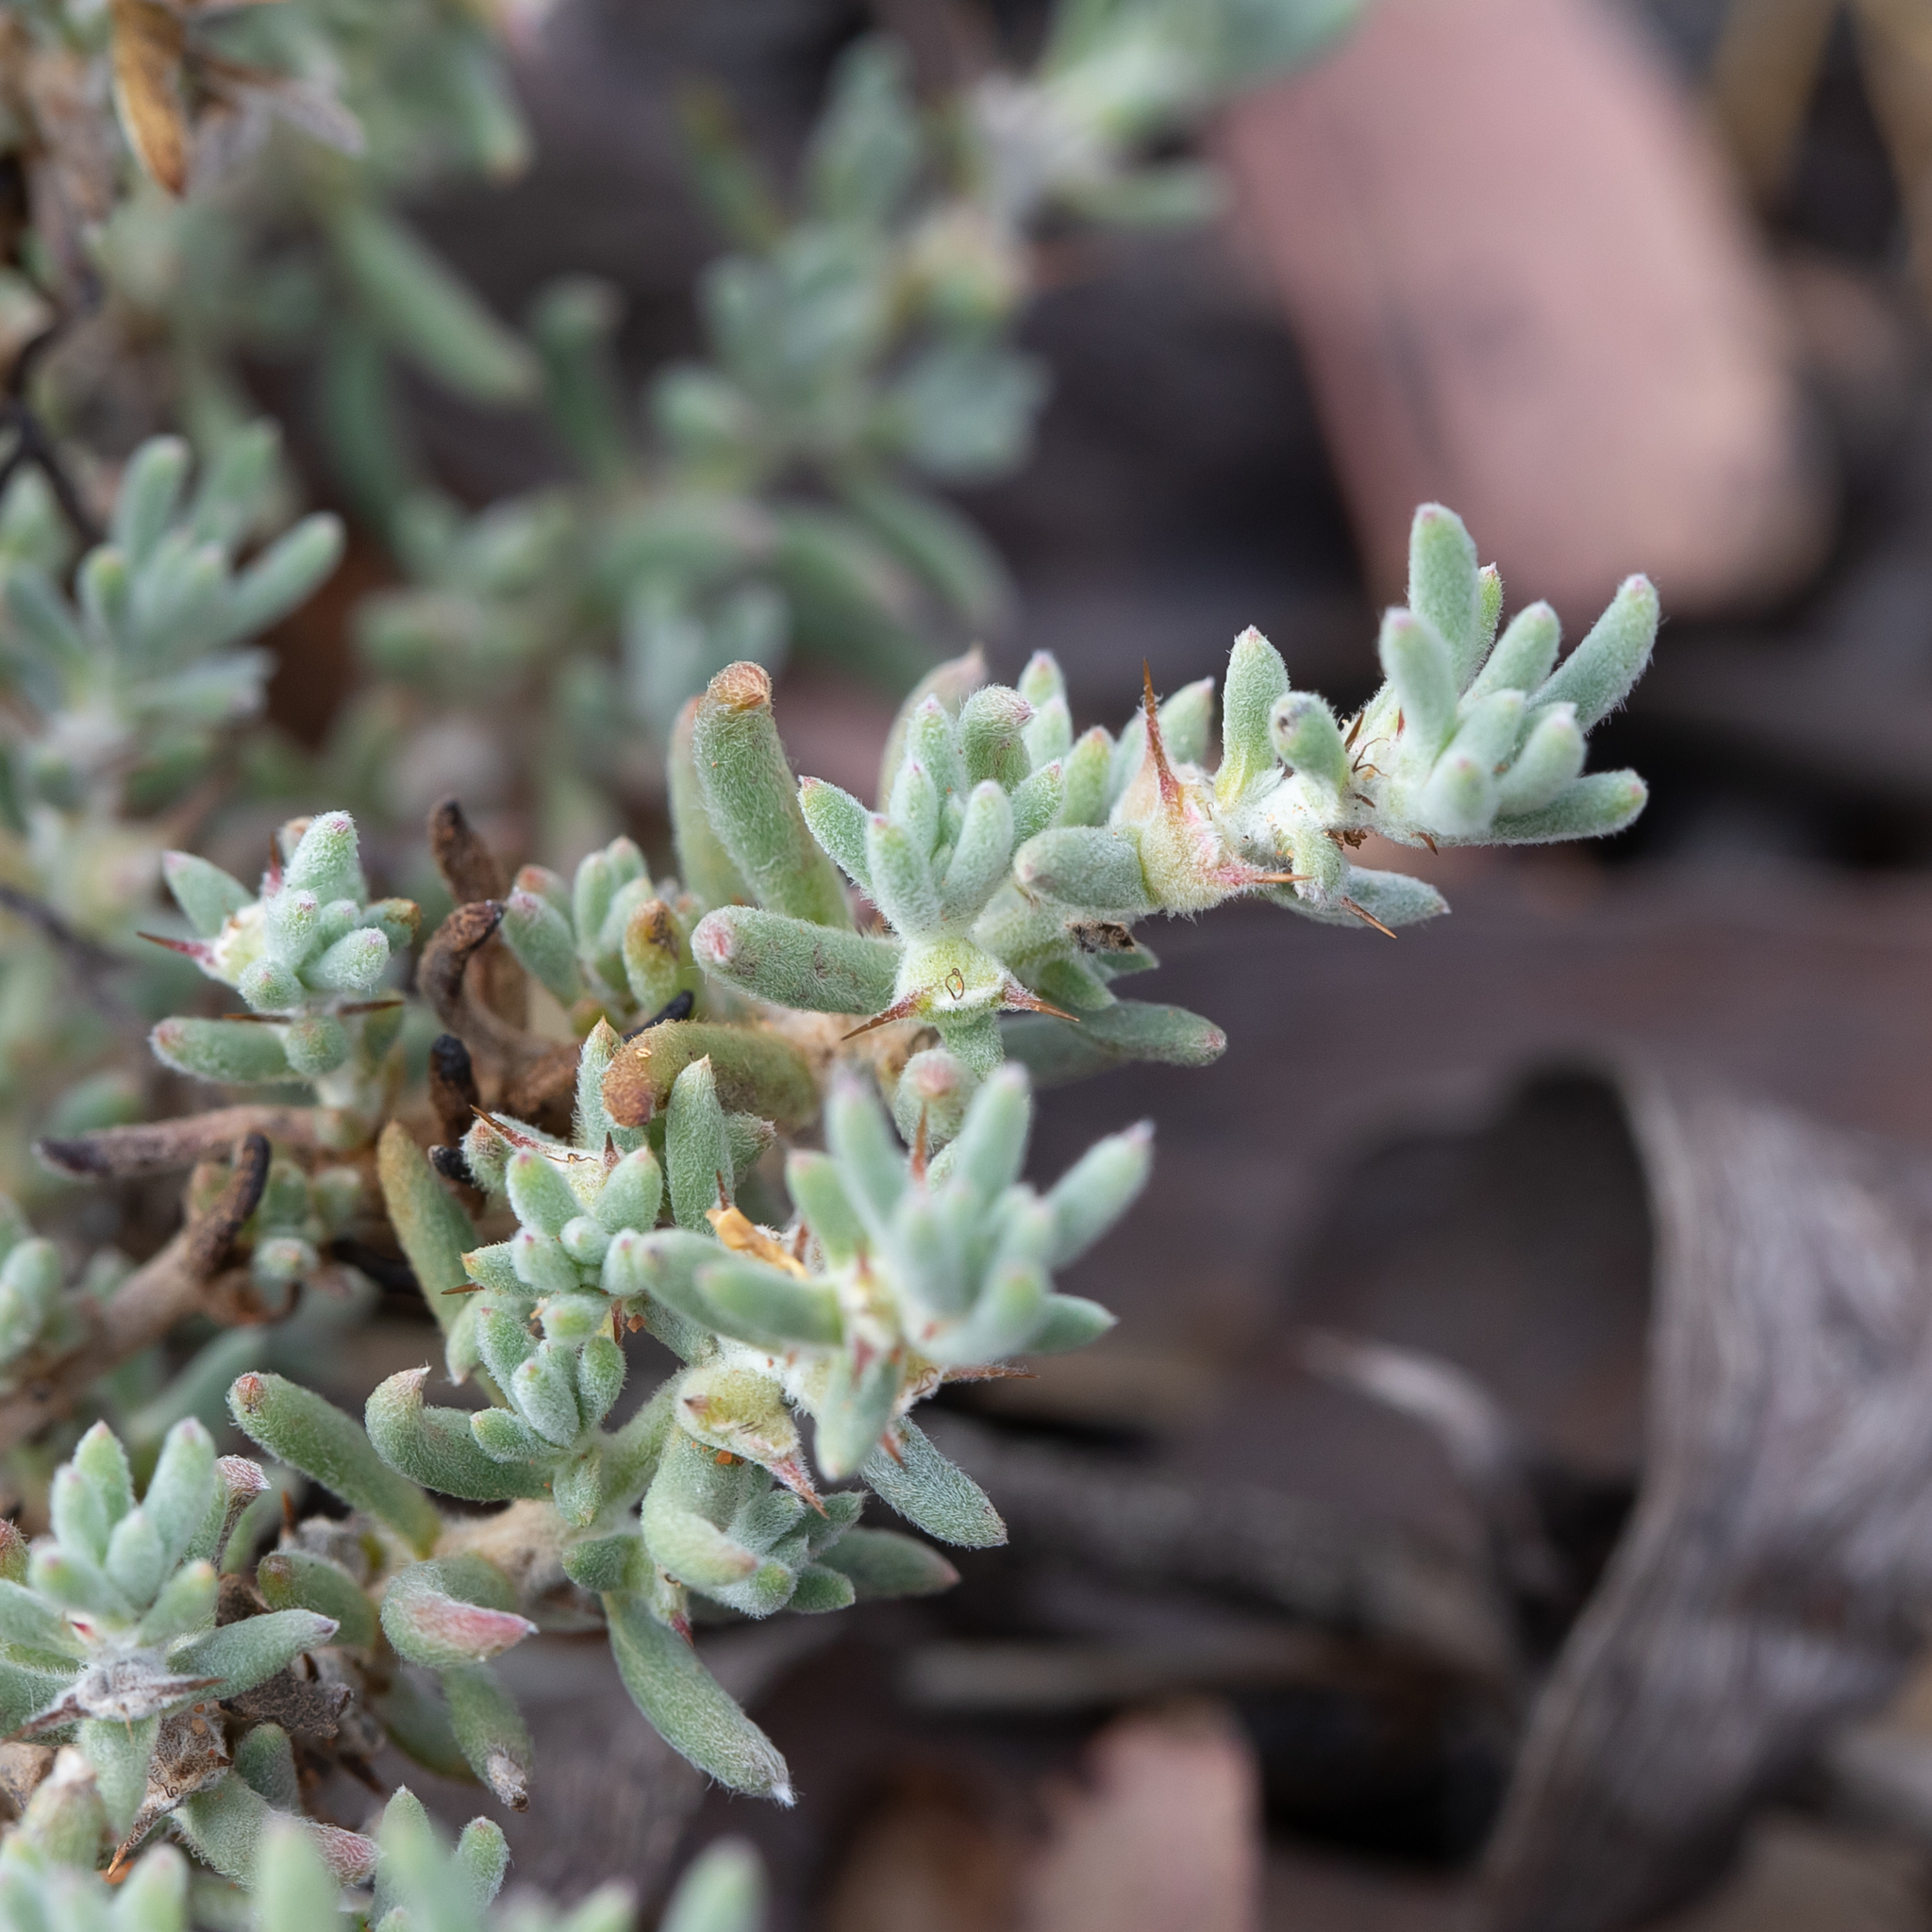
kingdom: Plantae
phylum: Tracheophyta
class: Magnoliopsida
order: Caryophyllales
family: Amaranthaceae
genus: Sclerolaena
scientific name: Sclerolaena diacantha
